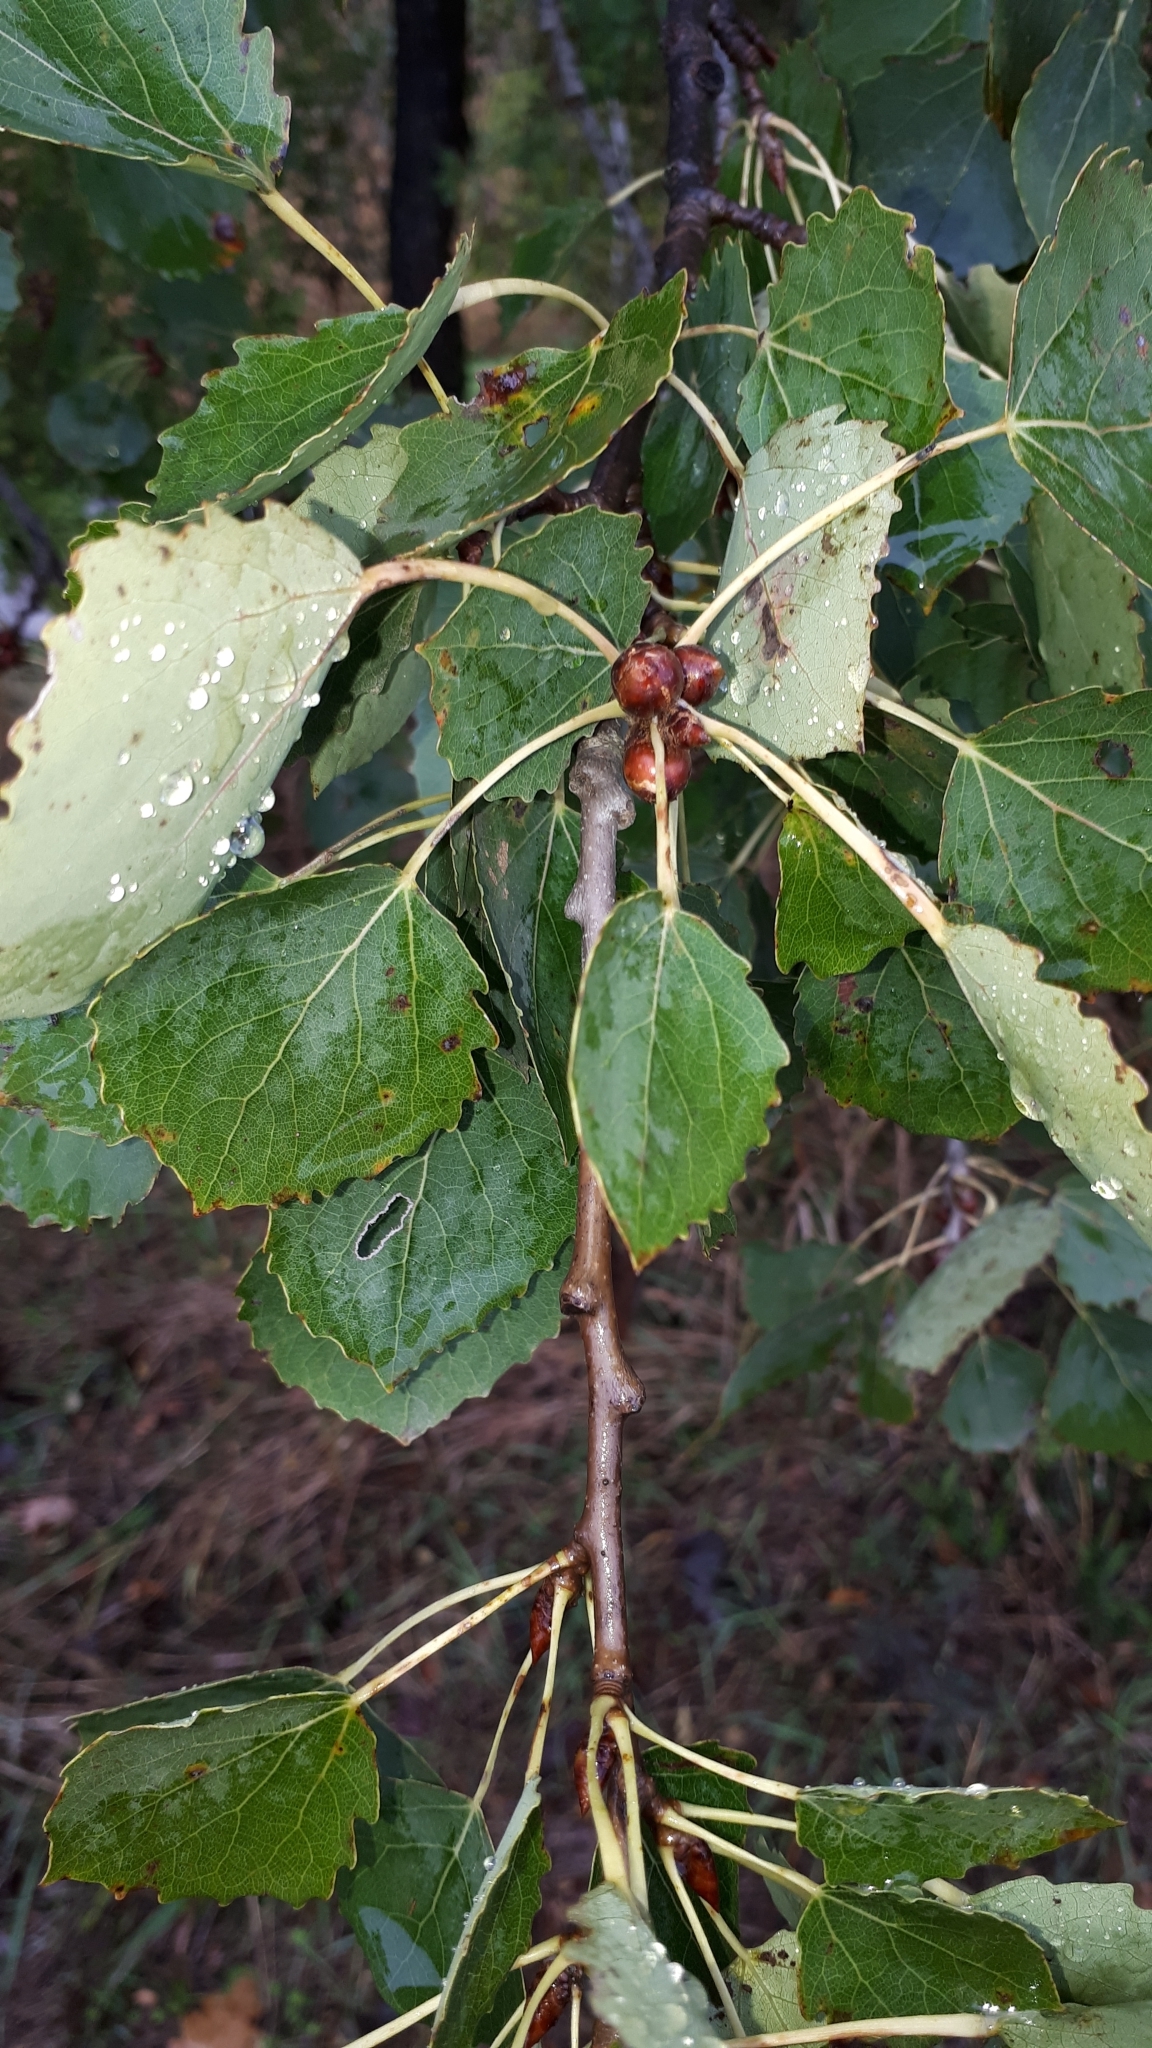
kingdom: Plantae
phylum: Tracheophyta
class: Magnoliopsida
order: Malpighiales
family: Salicaceae
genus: Populus
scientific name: Populus tremula
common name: European aspen
